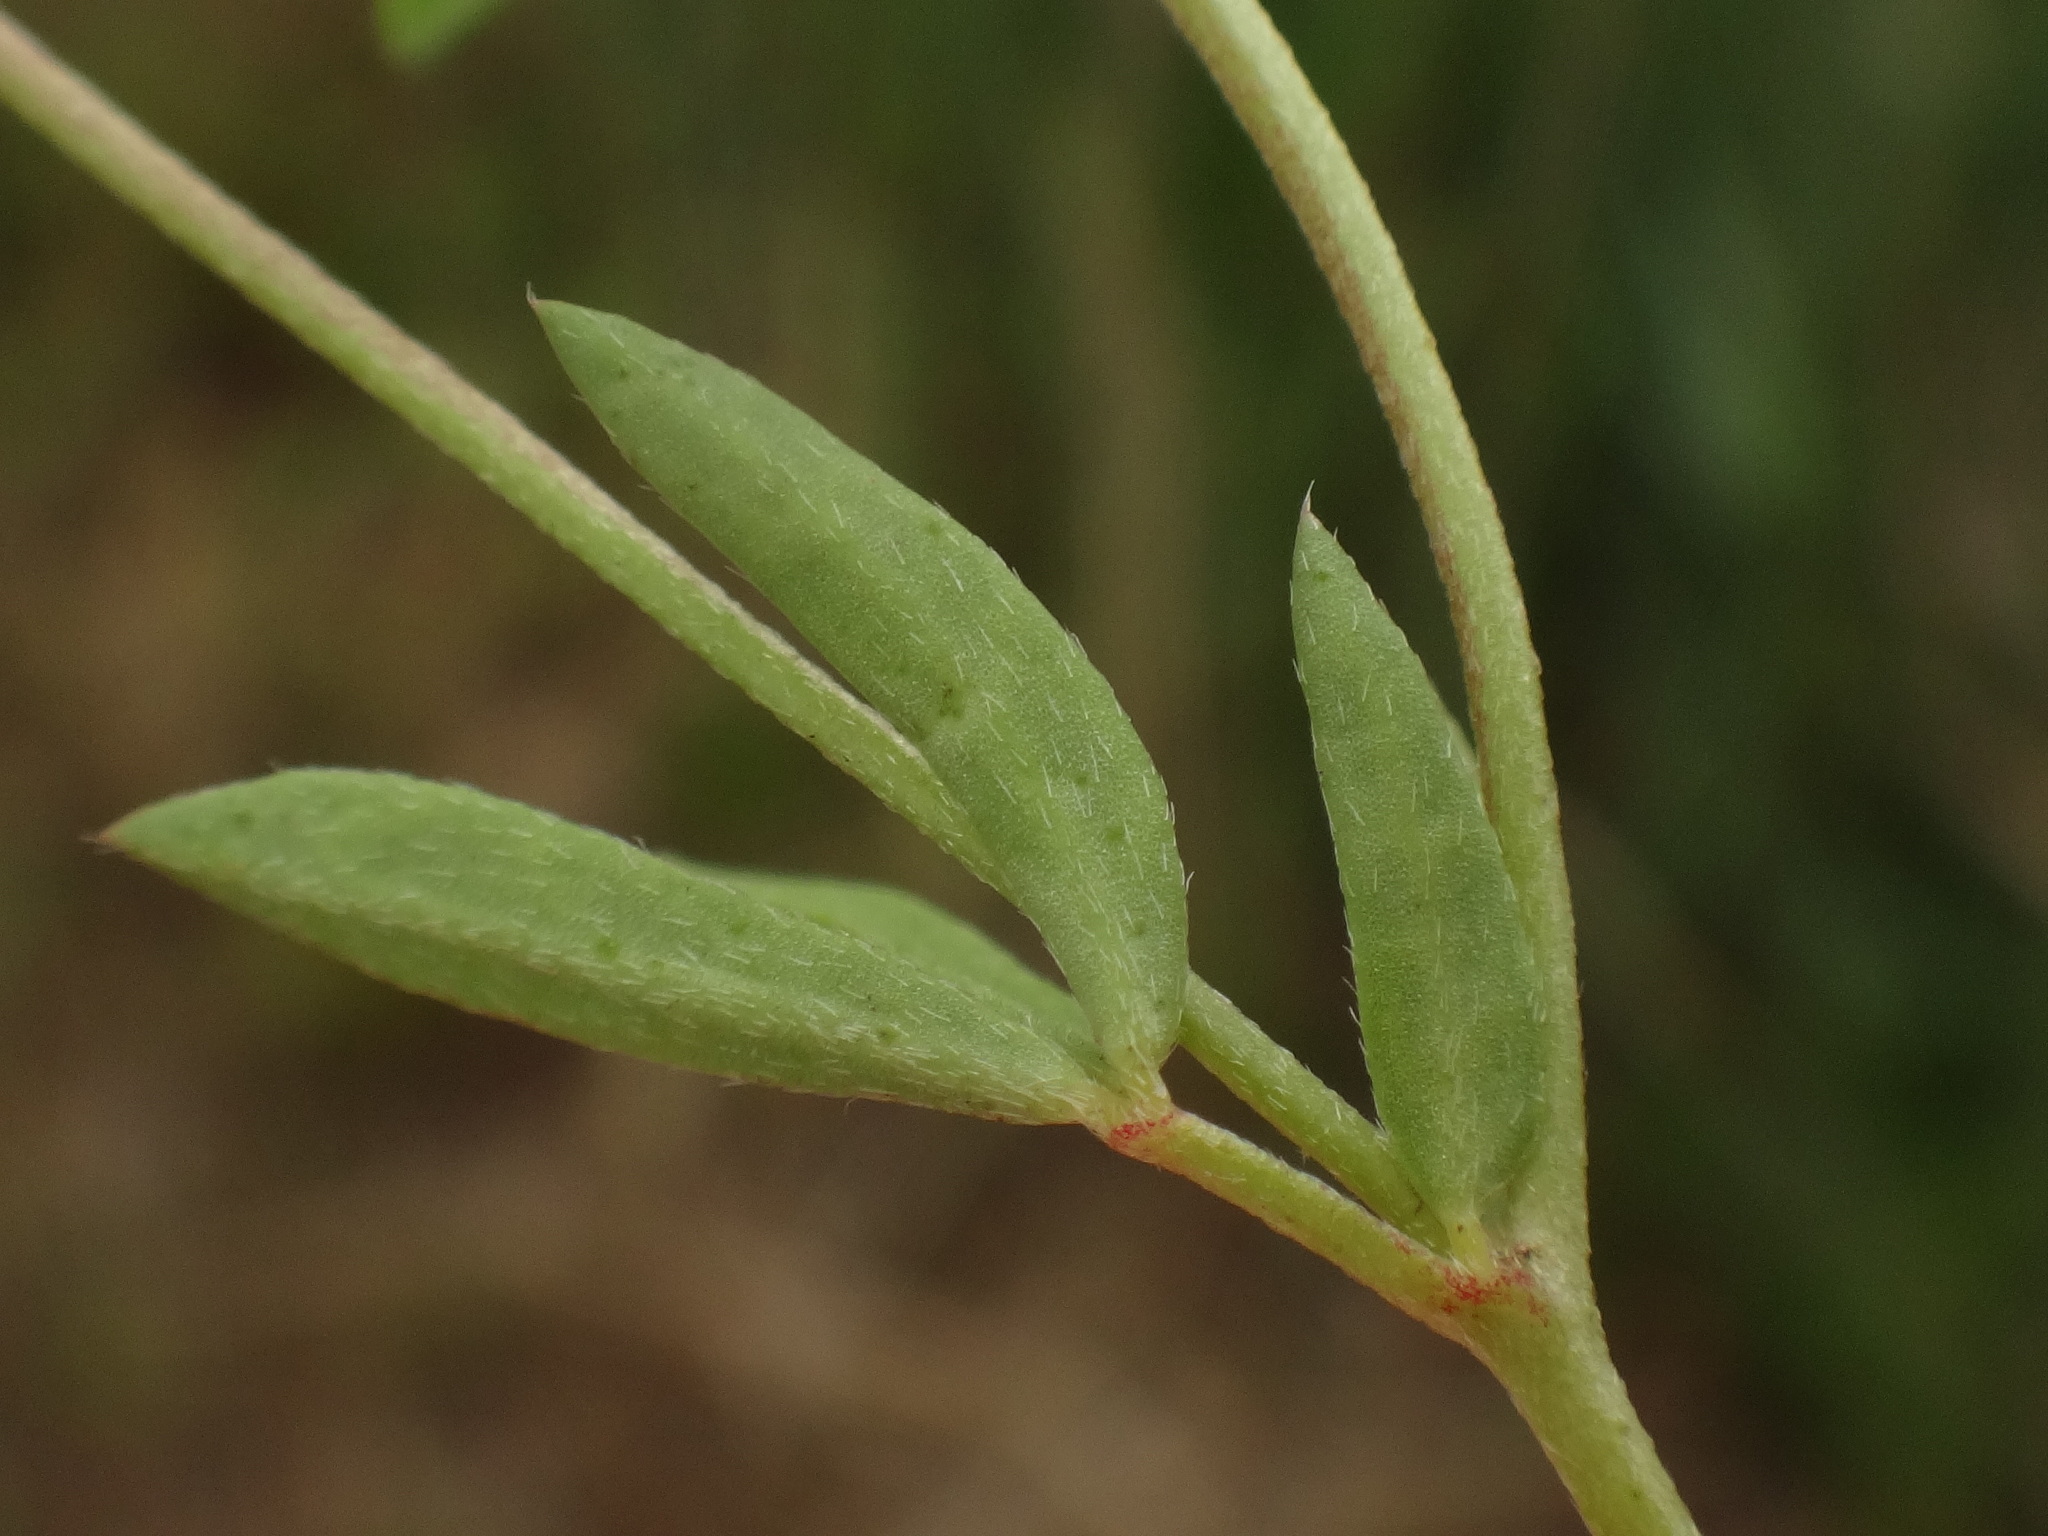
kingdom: Plantae
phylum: Tracheophyta
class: Magnoliopsida
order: Fabales
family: Fabaceae
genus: Lotus
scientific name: Lotus tenuis
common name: Narrow-leaved bird's-foot-trefoil
